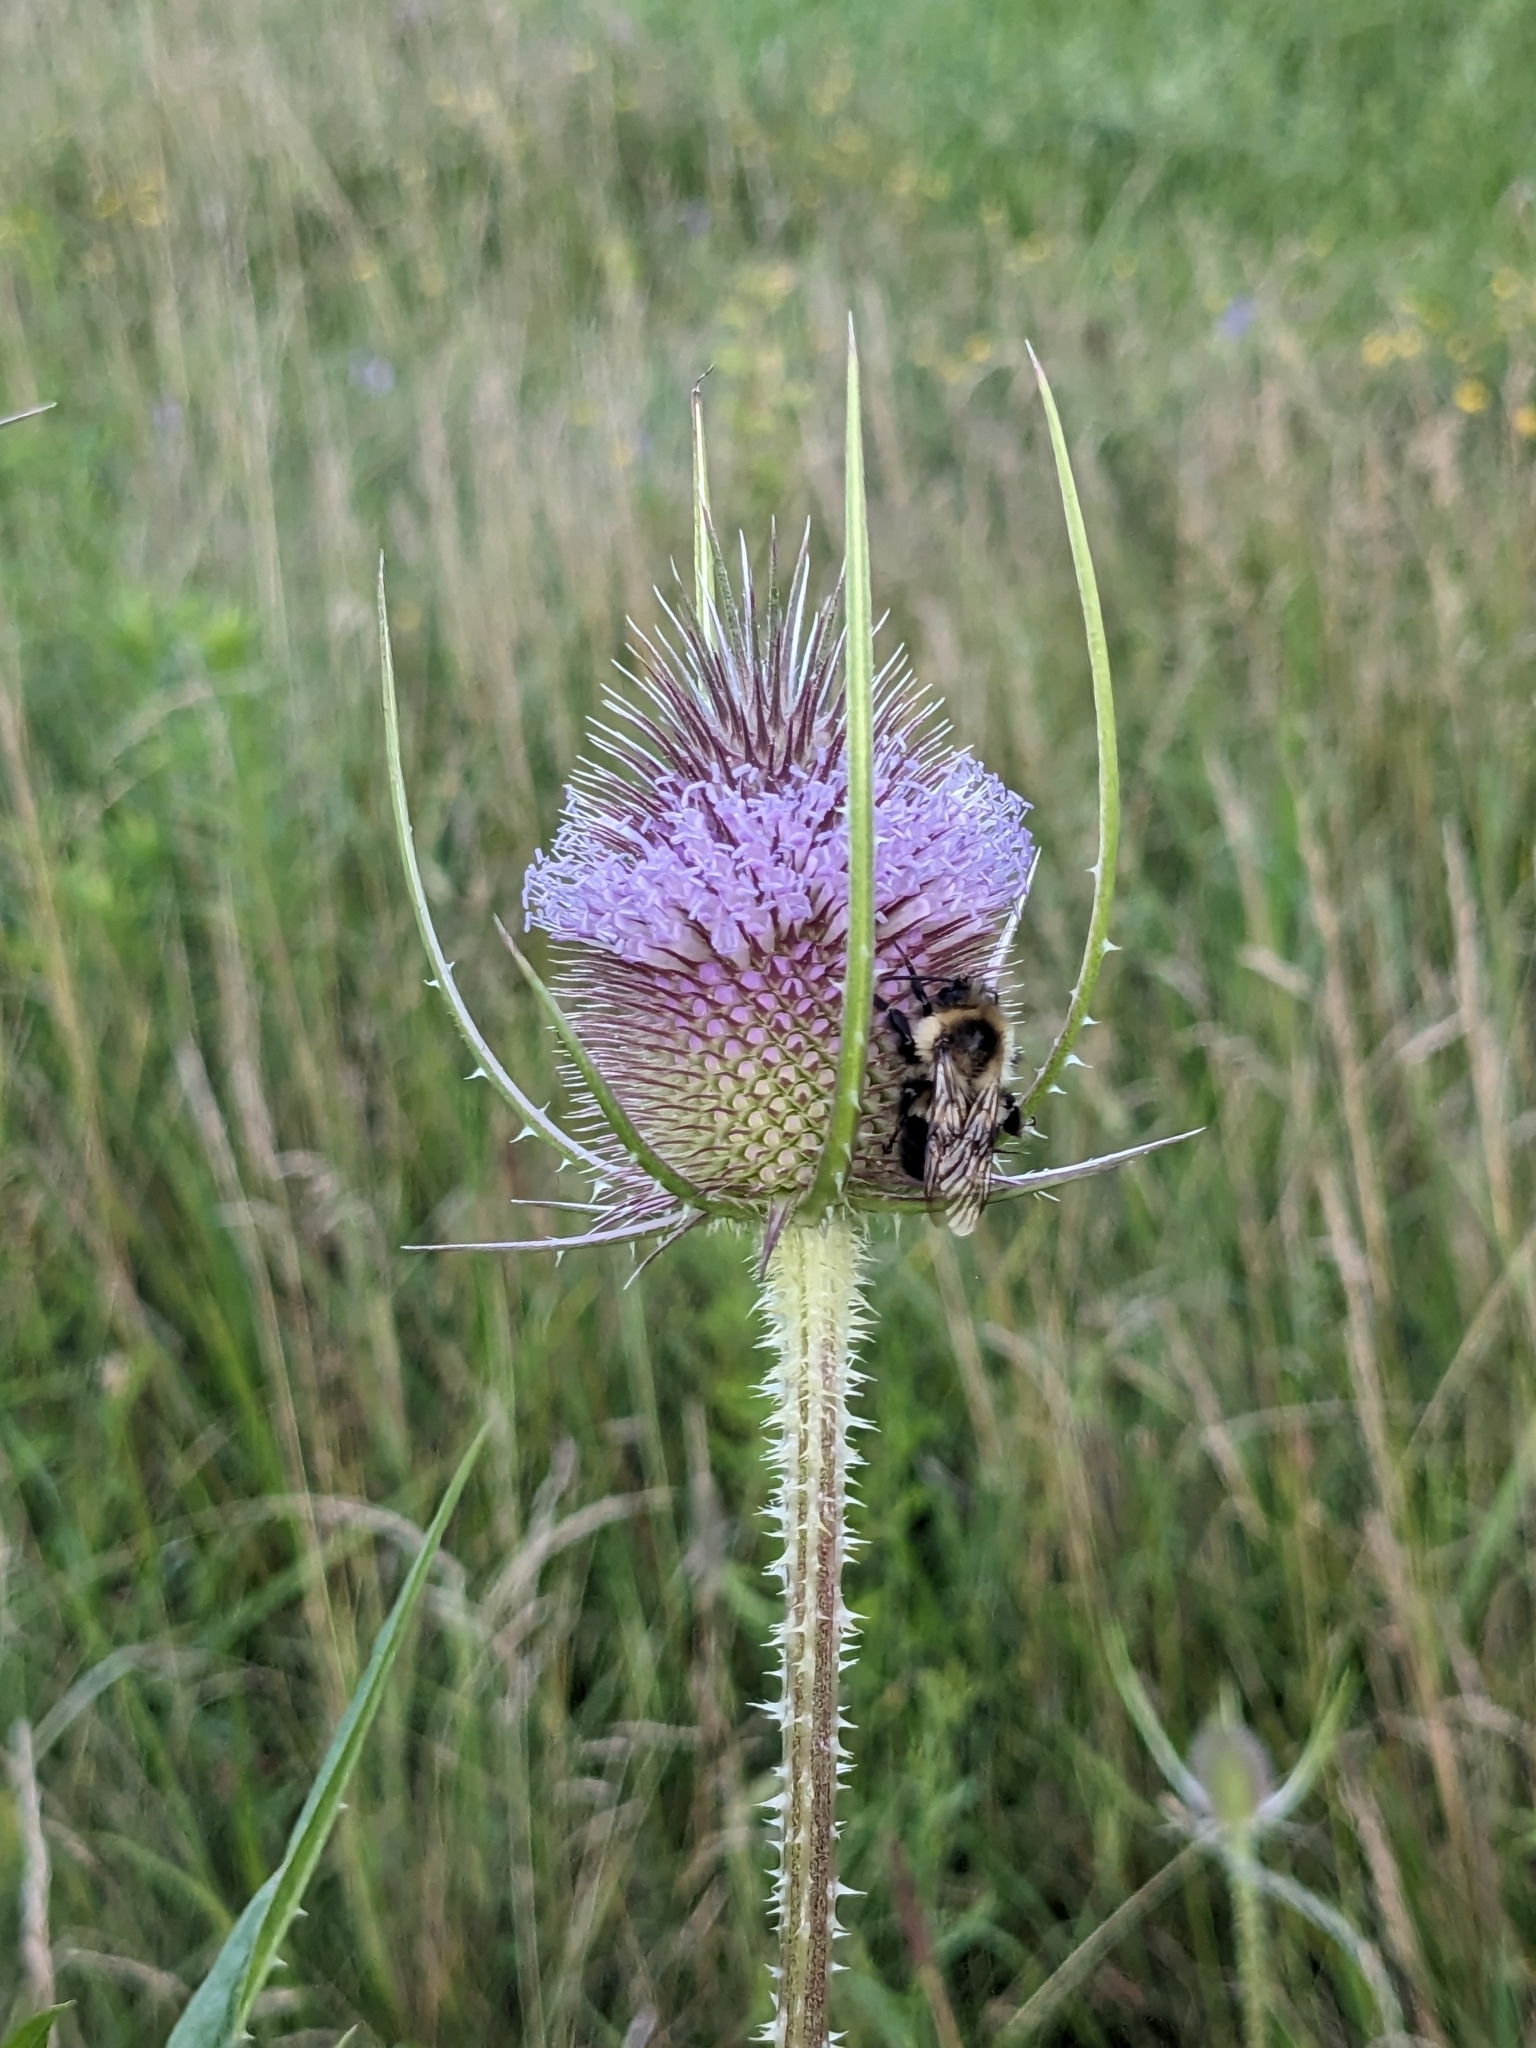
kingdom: Plantae
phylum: Tracheophyta
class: Magnoliopsida
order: Dipsacales
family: Caprifoliaceae
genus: Dipsacus
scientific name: Dipsacus fullonum
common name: Teasel
